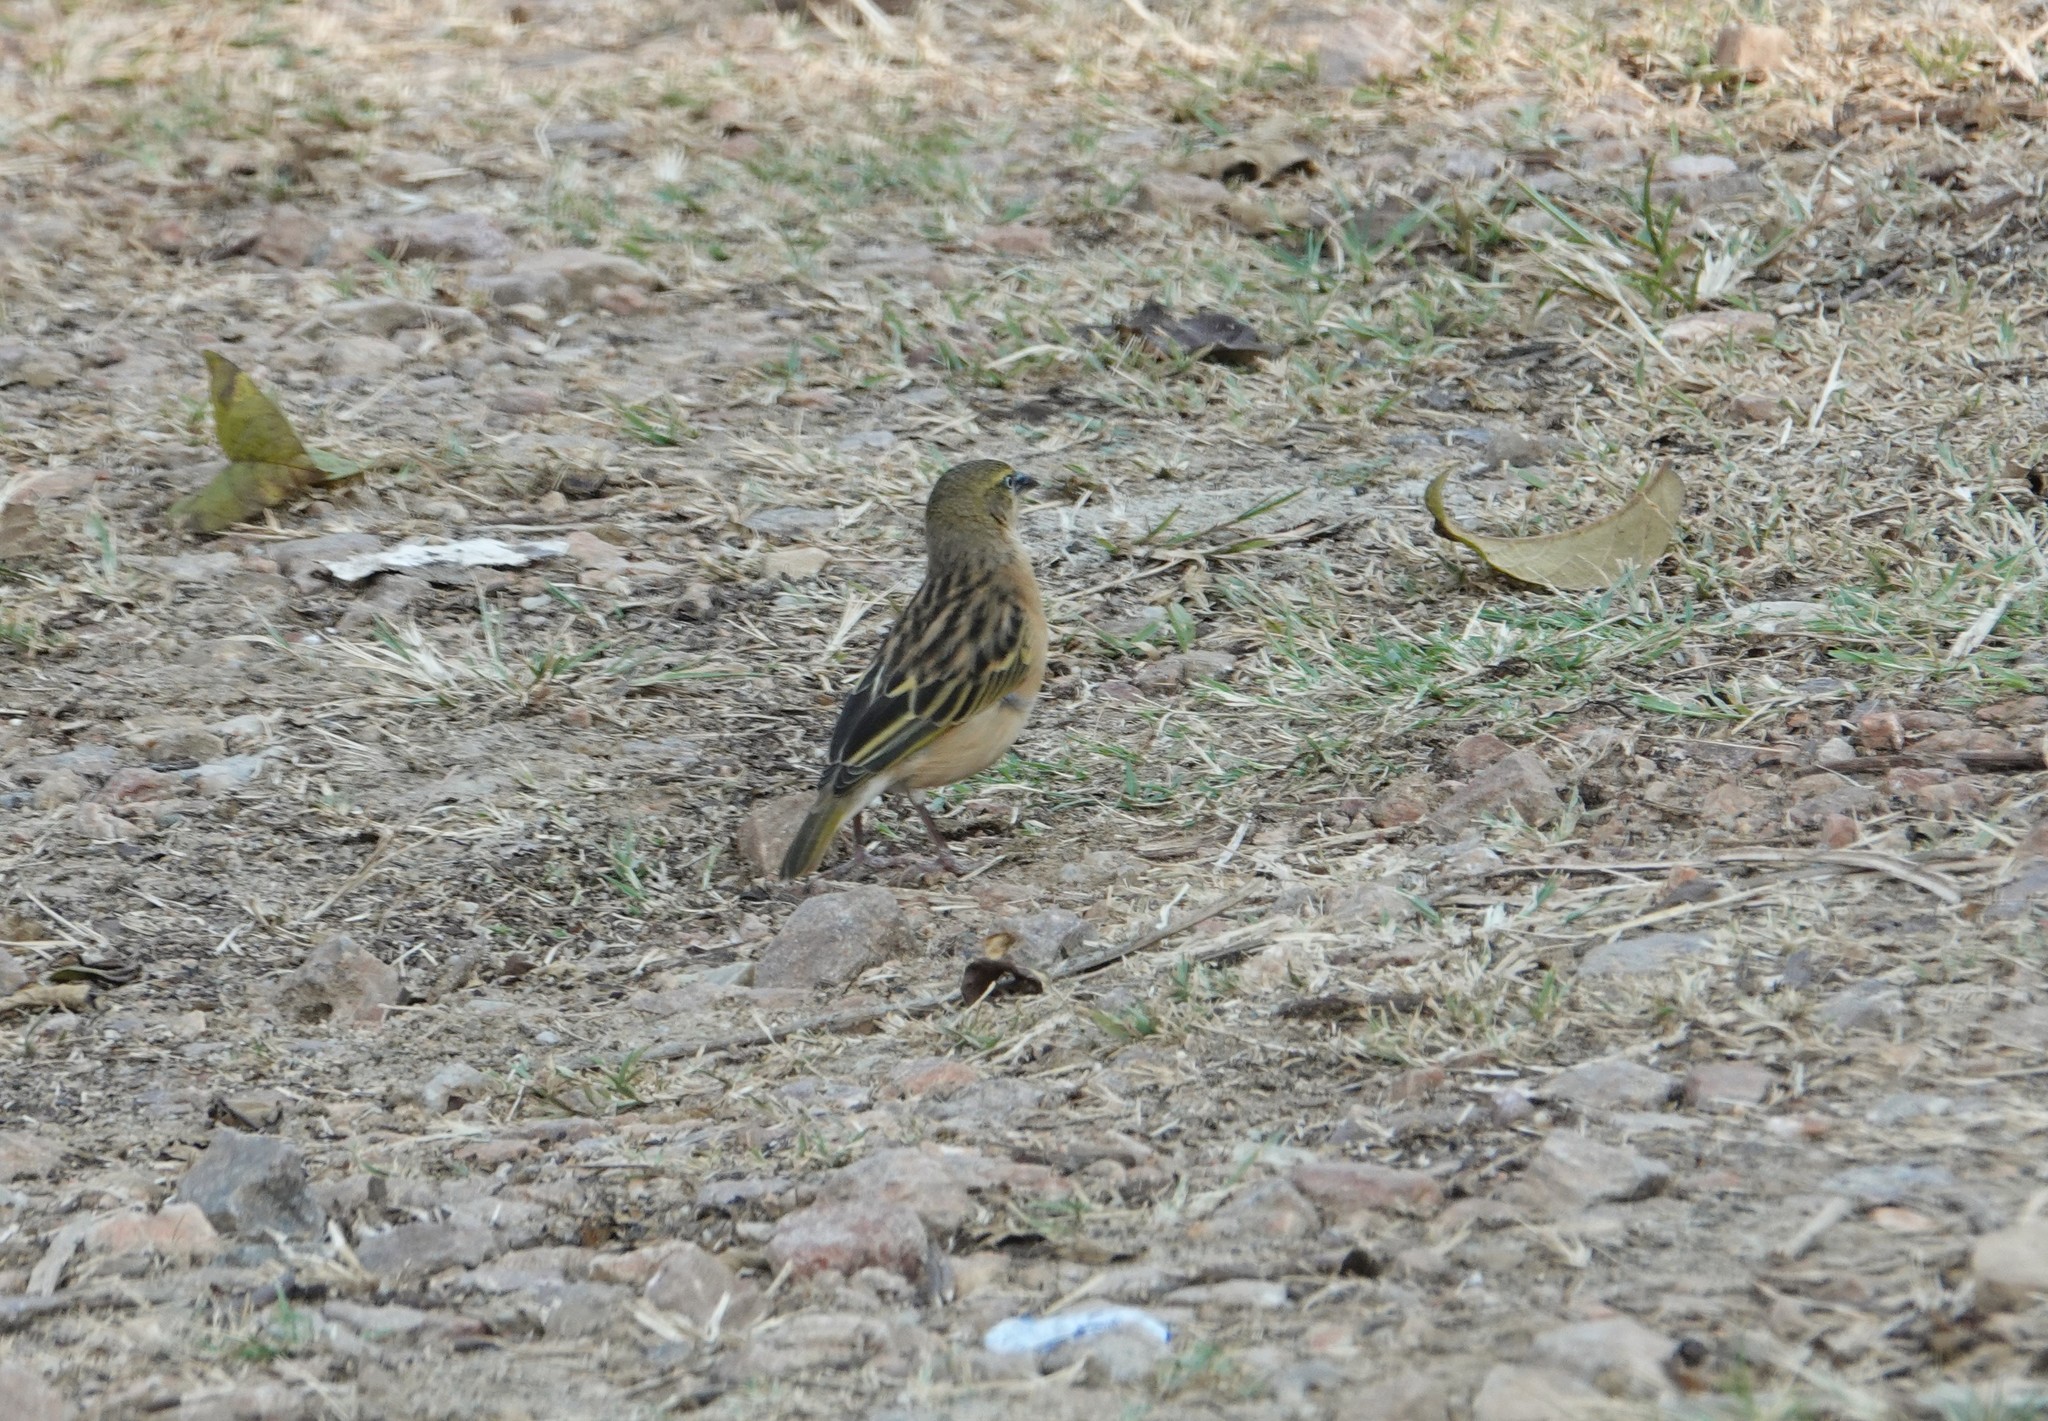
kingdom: Animalia
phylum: Chordata
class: Aves
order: Passeriformes
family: Ploceidae
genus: Ploceus
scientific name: Ploceus castanops
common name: Northern brown-throated weaver
